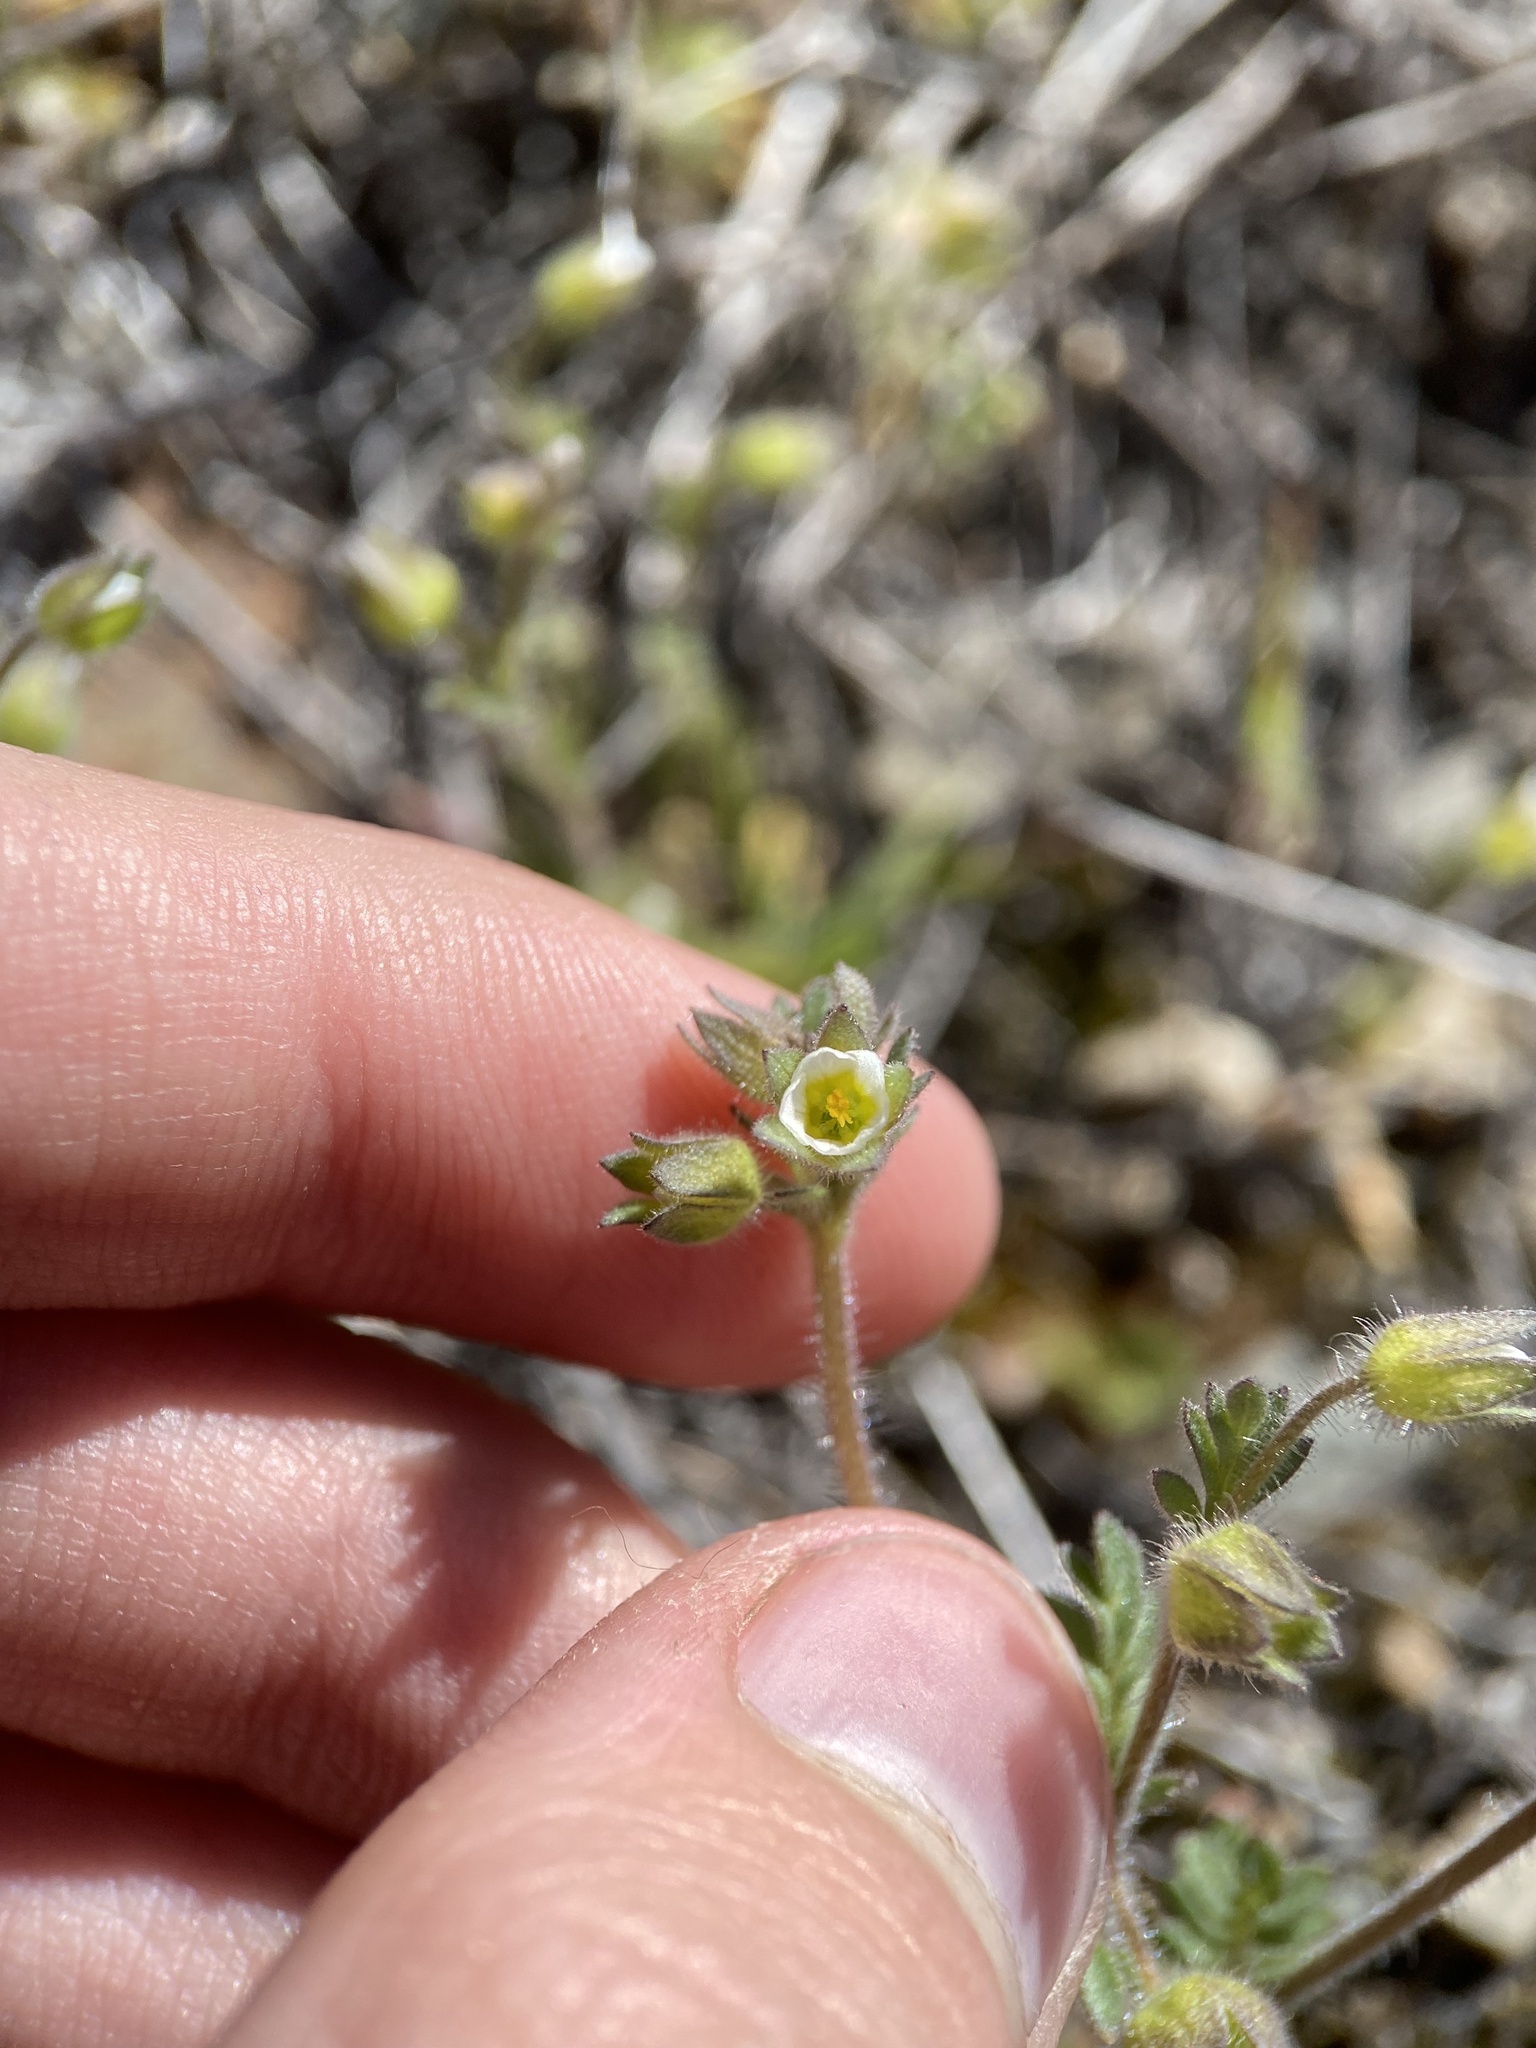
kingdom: Plantae
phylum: Tracheophyta
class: Magnoliopsida
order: Ericales
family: Polemoniaceae
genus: Polemonium
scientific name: Polemonium micranthum
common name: Annual jacob's-ladder
